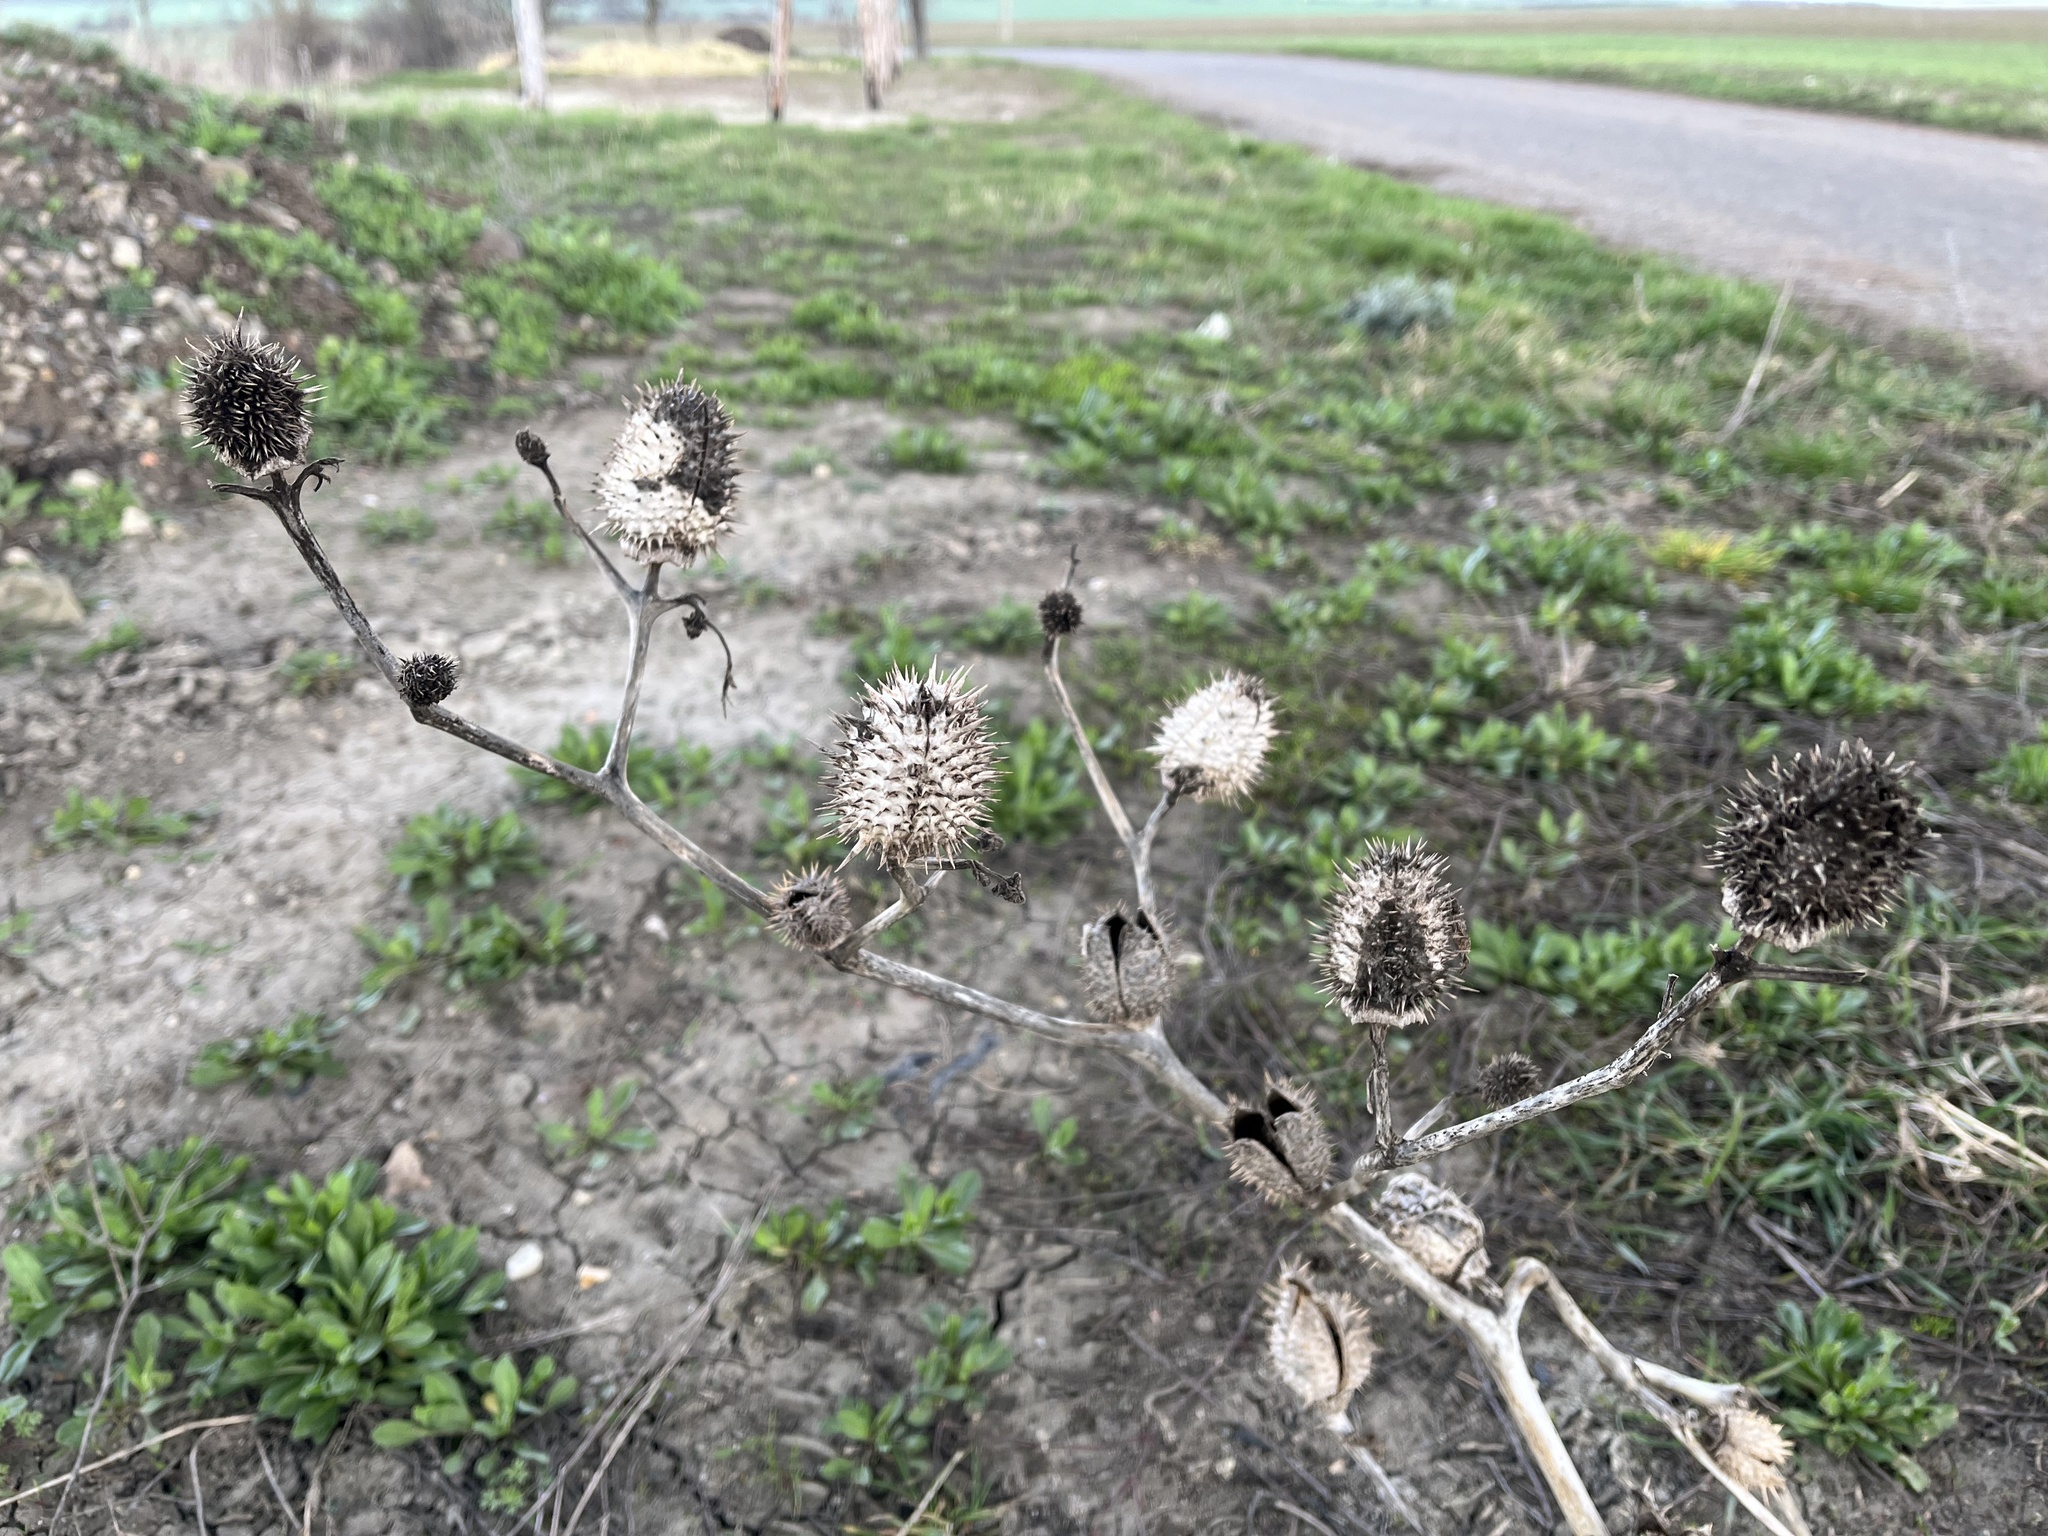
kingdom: Plantae
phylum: Tracheophyta
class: Magnoliopsida
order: Solanales
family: Solanaceae
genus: Datura
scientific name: Datura stramonium
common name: Thorn-apple
